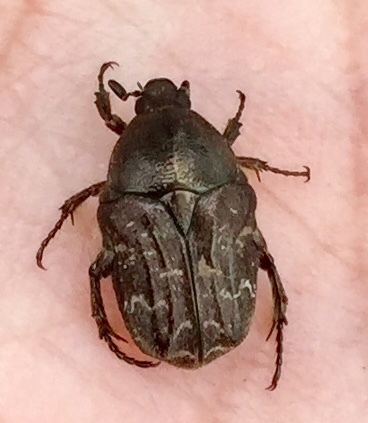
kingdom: Animalia
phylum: Arthropoda
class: Insecta
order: Coleoptera
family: Scarabaeidae
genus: Euphoria
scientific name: Euphoria sepulcralis
